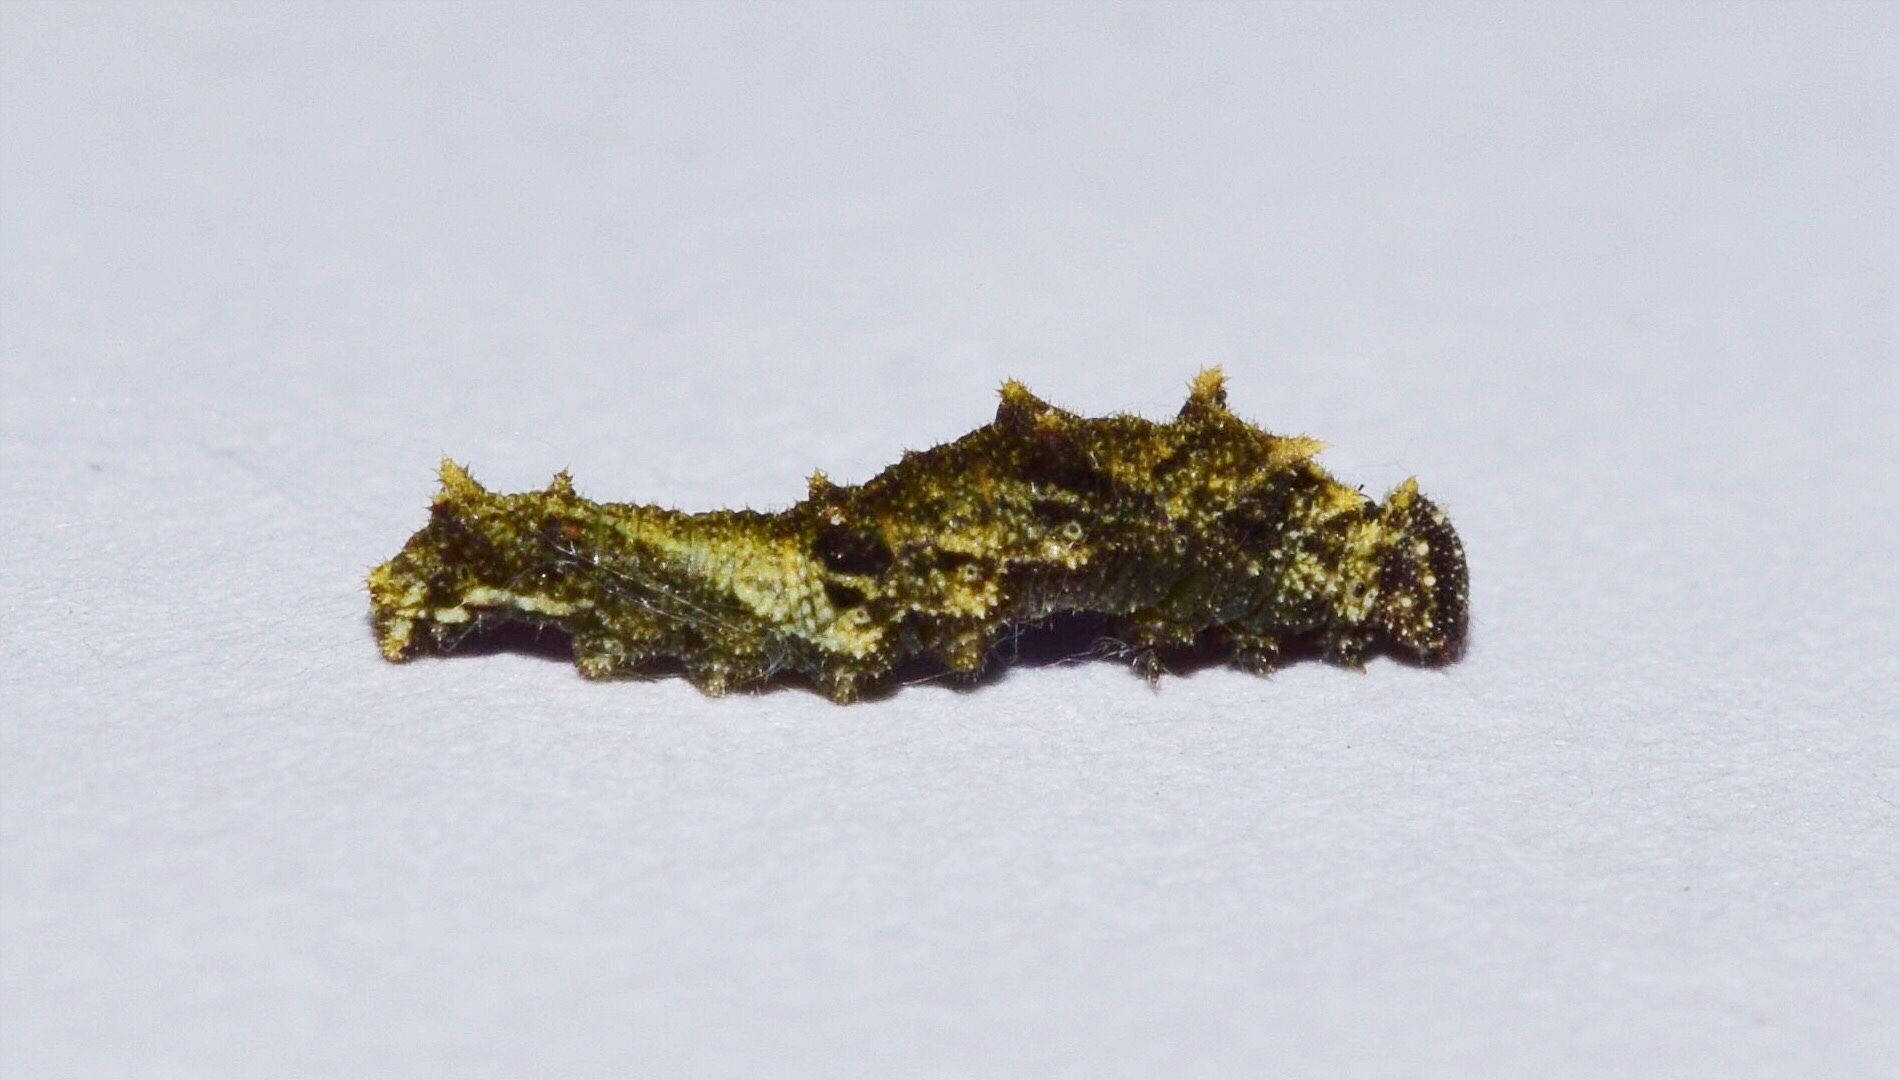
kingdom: Animalia
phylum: Arthropoda
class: Insecta
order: Lepidoptera
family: Nymphalidae
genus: Neptis
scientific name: Neptis saclava
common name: Small spotted sailor
